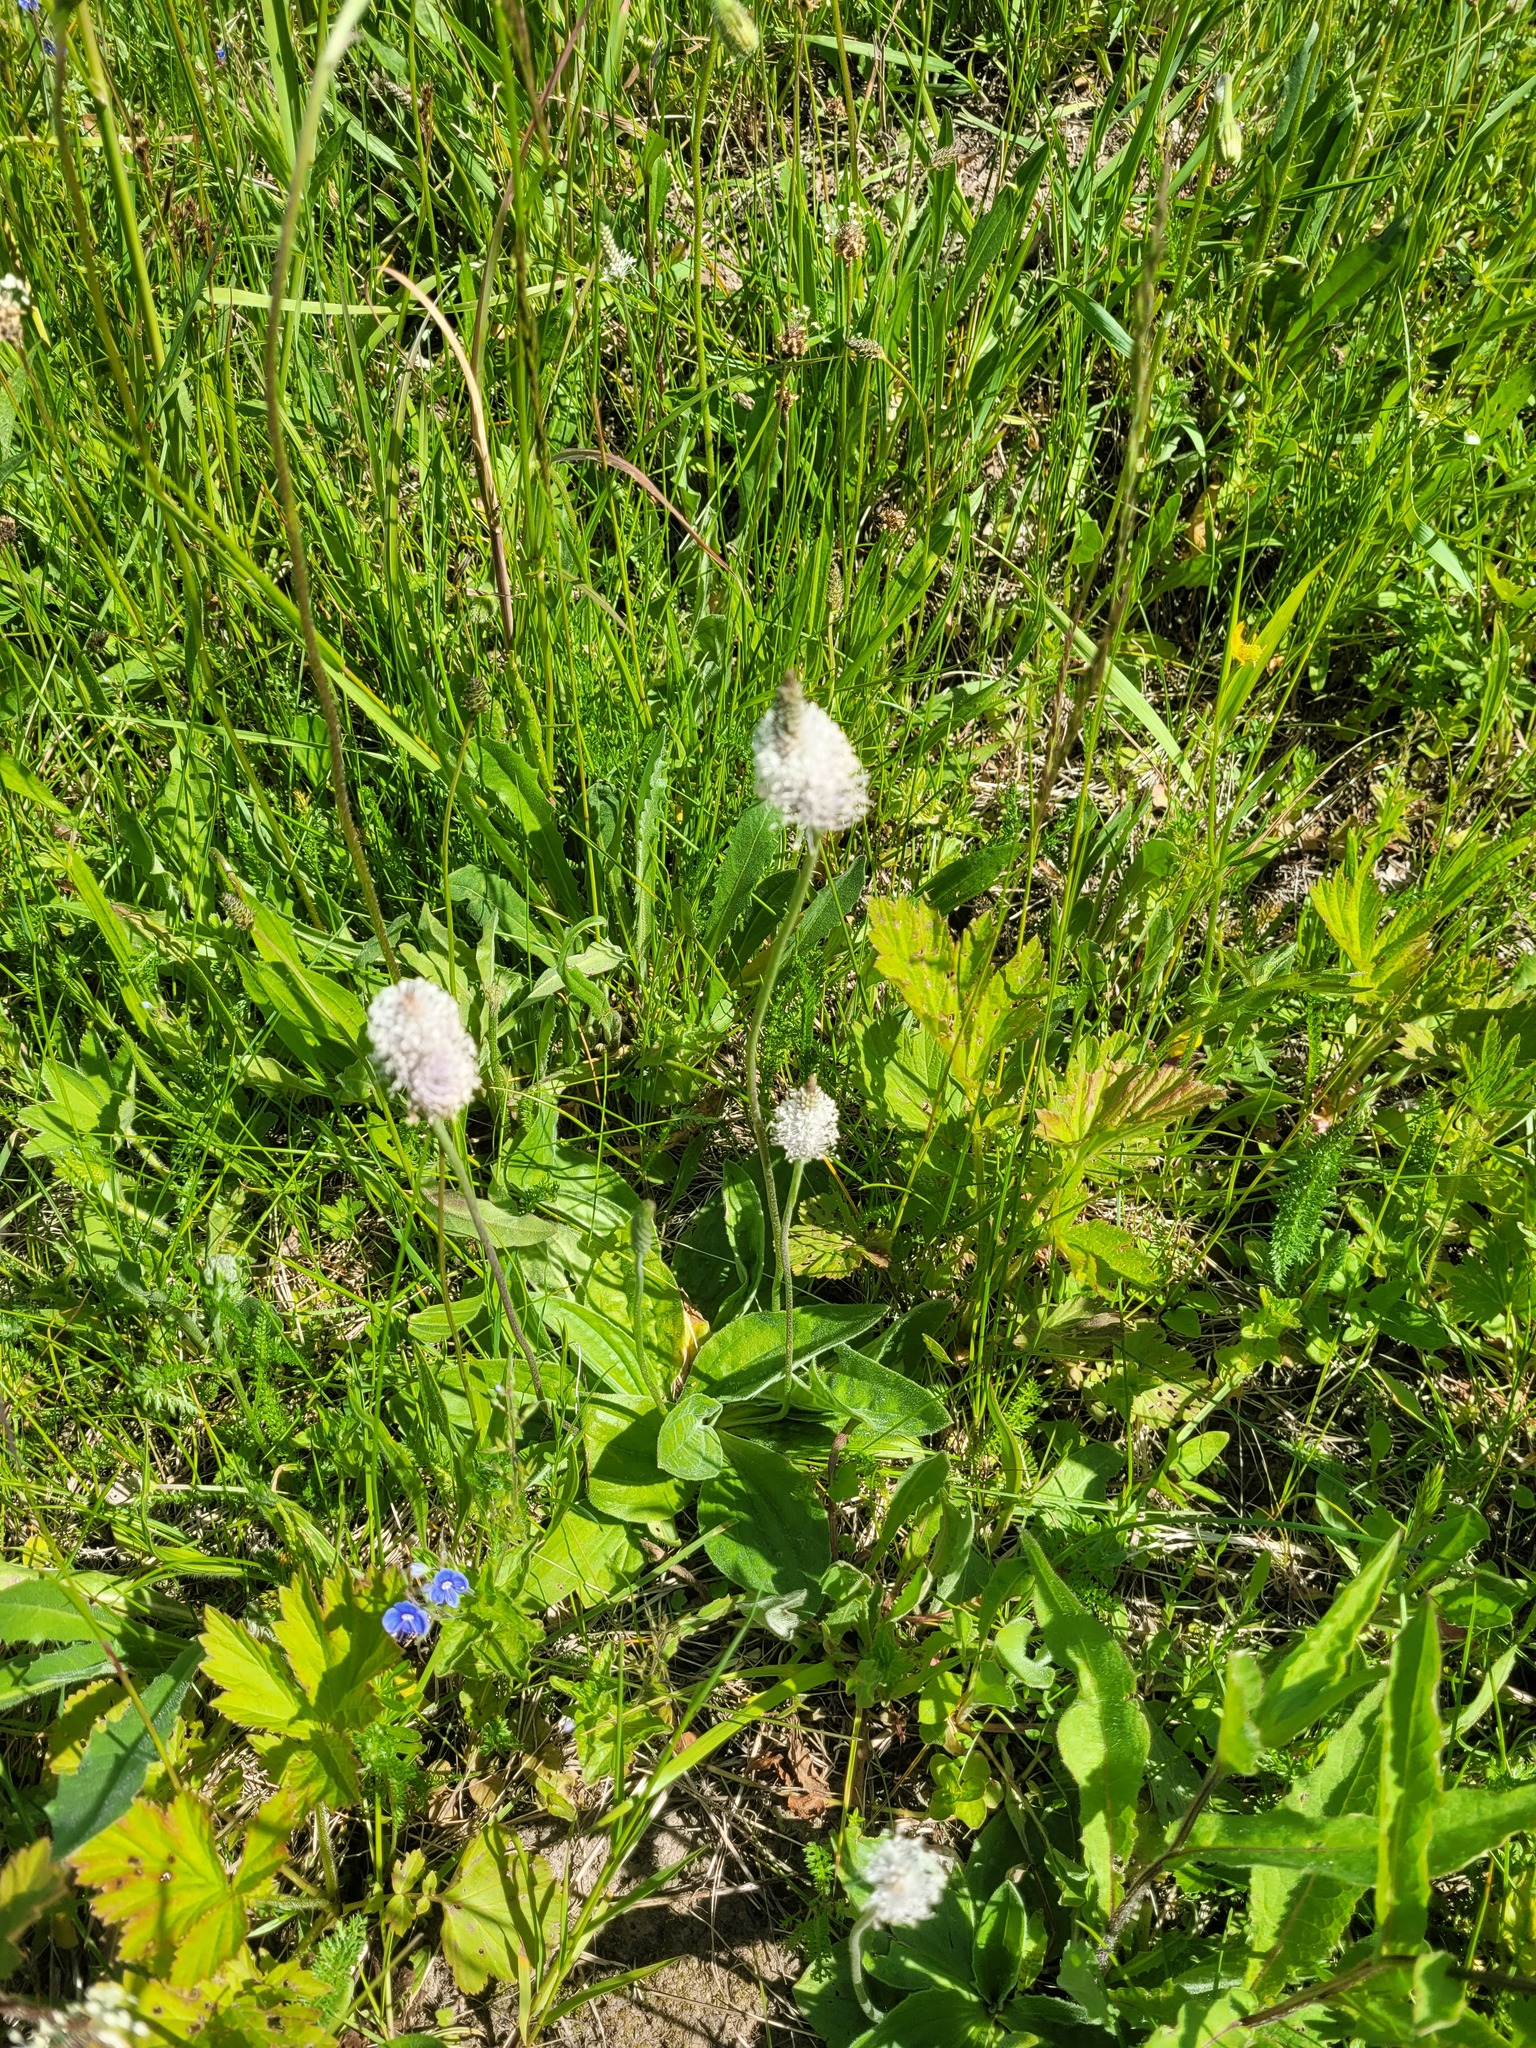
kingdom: Plantae
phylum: Tracheophyta
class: Magnoliopsida
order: Lamiales
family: Plantaginaceae
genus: Plantago
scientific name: Plantago media
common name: Hoary plantain
